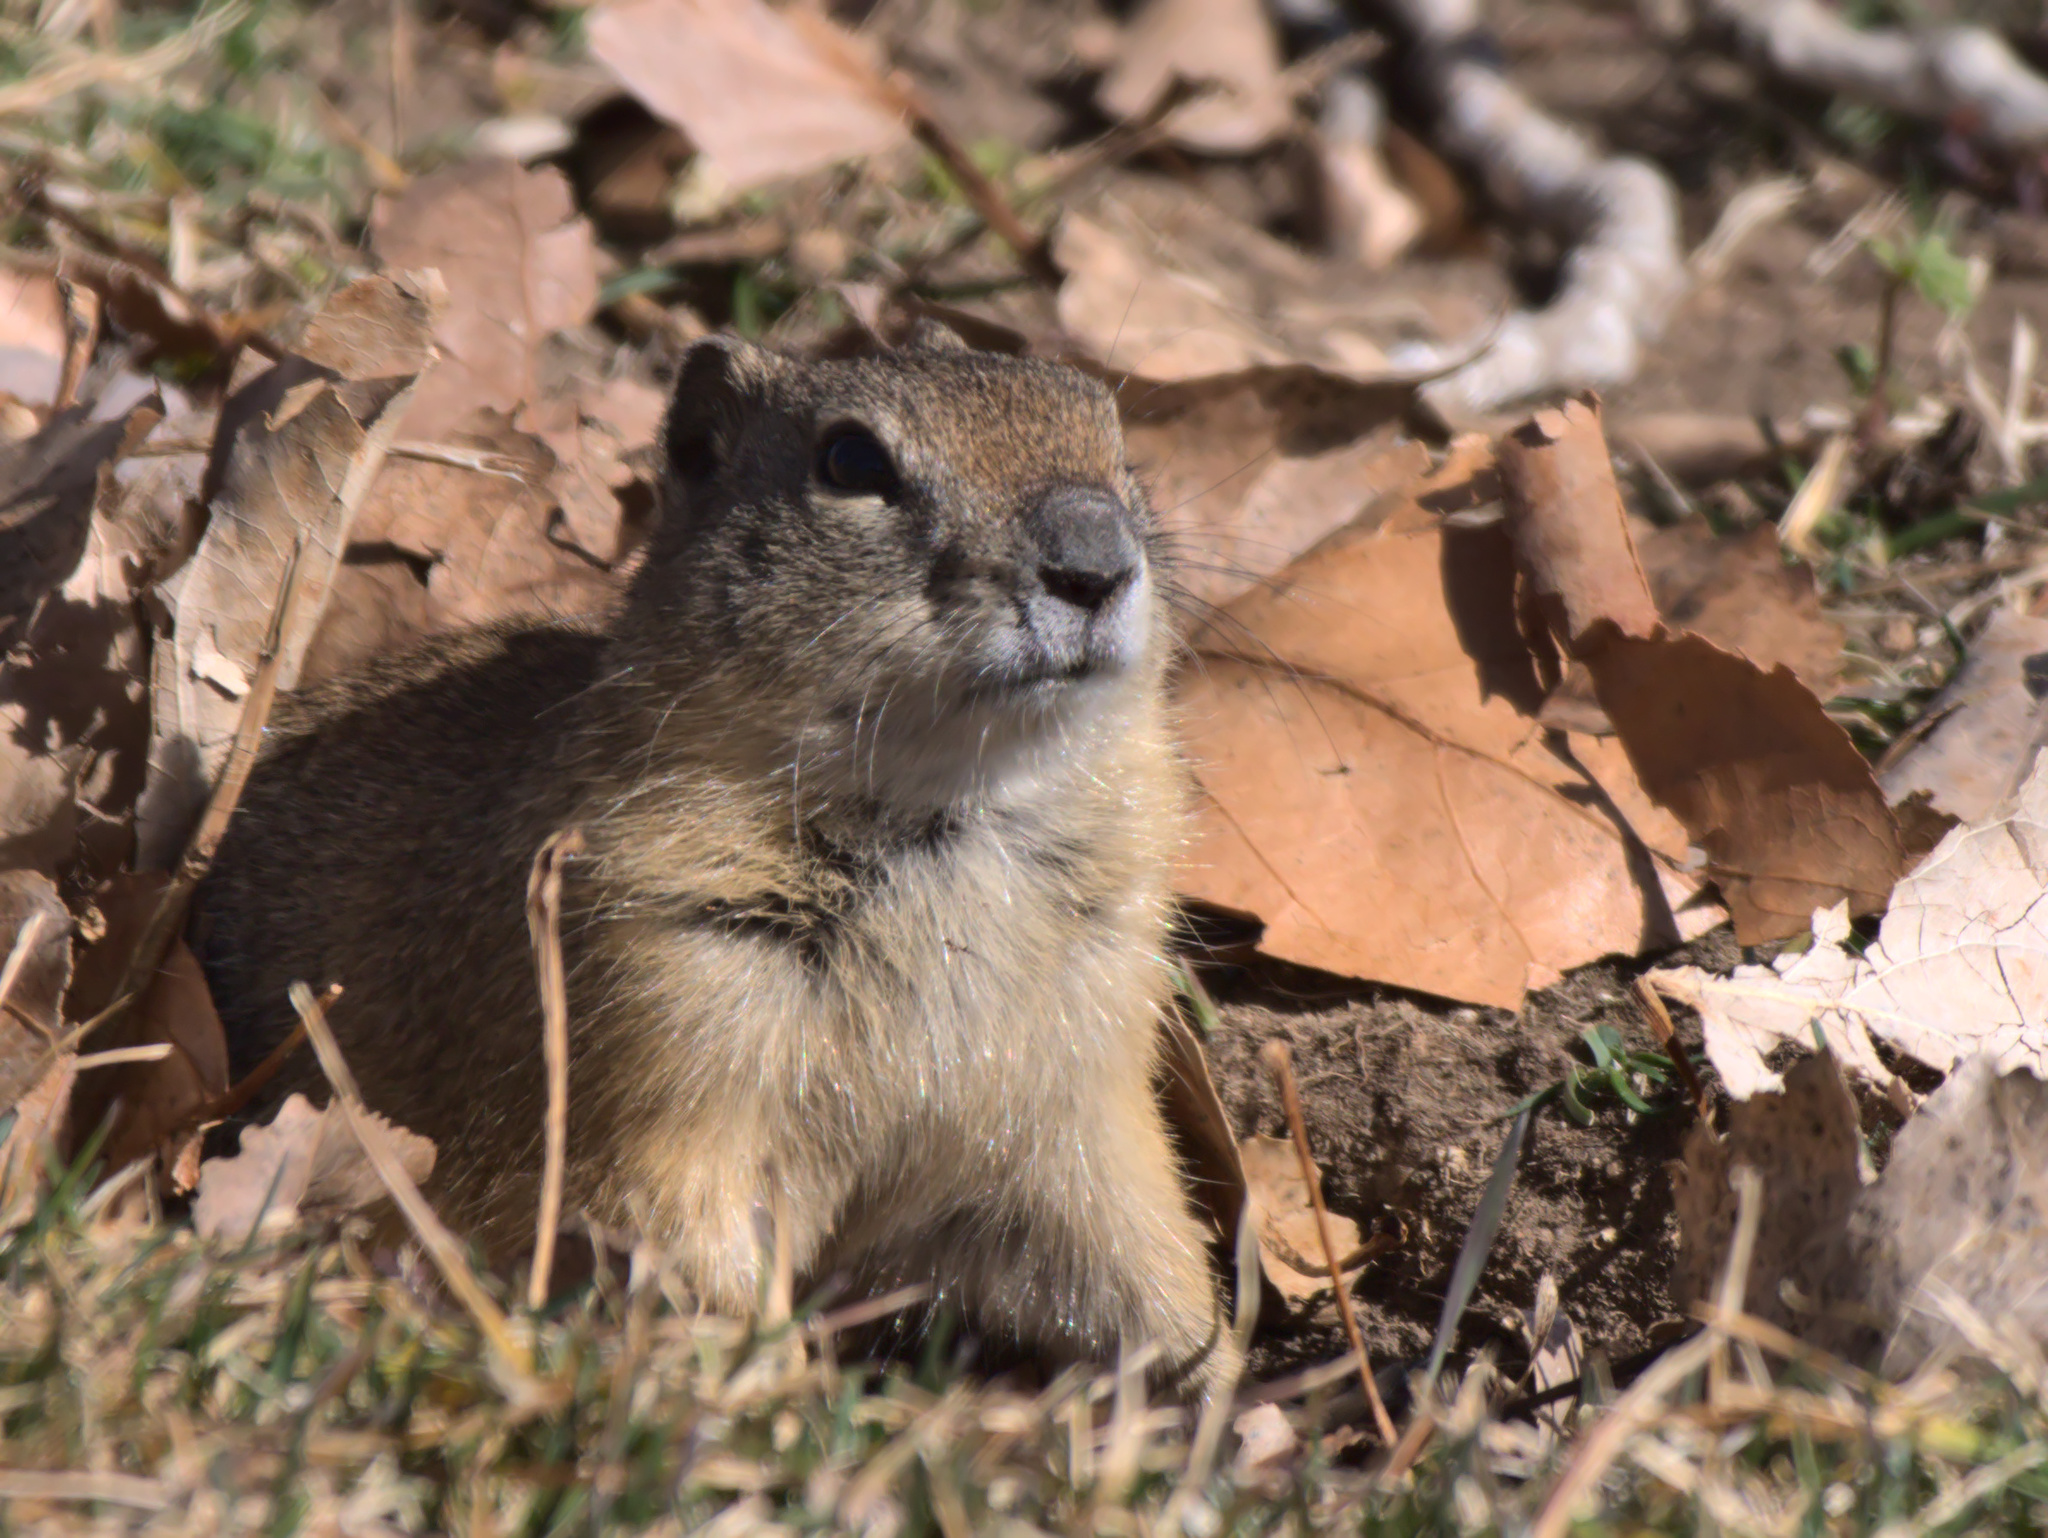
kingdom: Animalia
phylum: Chordata
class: Mammalia
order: Rodentia
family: Sciuridae
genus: Urocitellus
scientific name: Urocitellus beldingi
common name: Belding's ground squirrel
